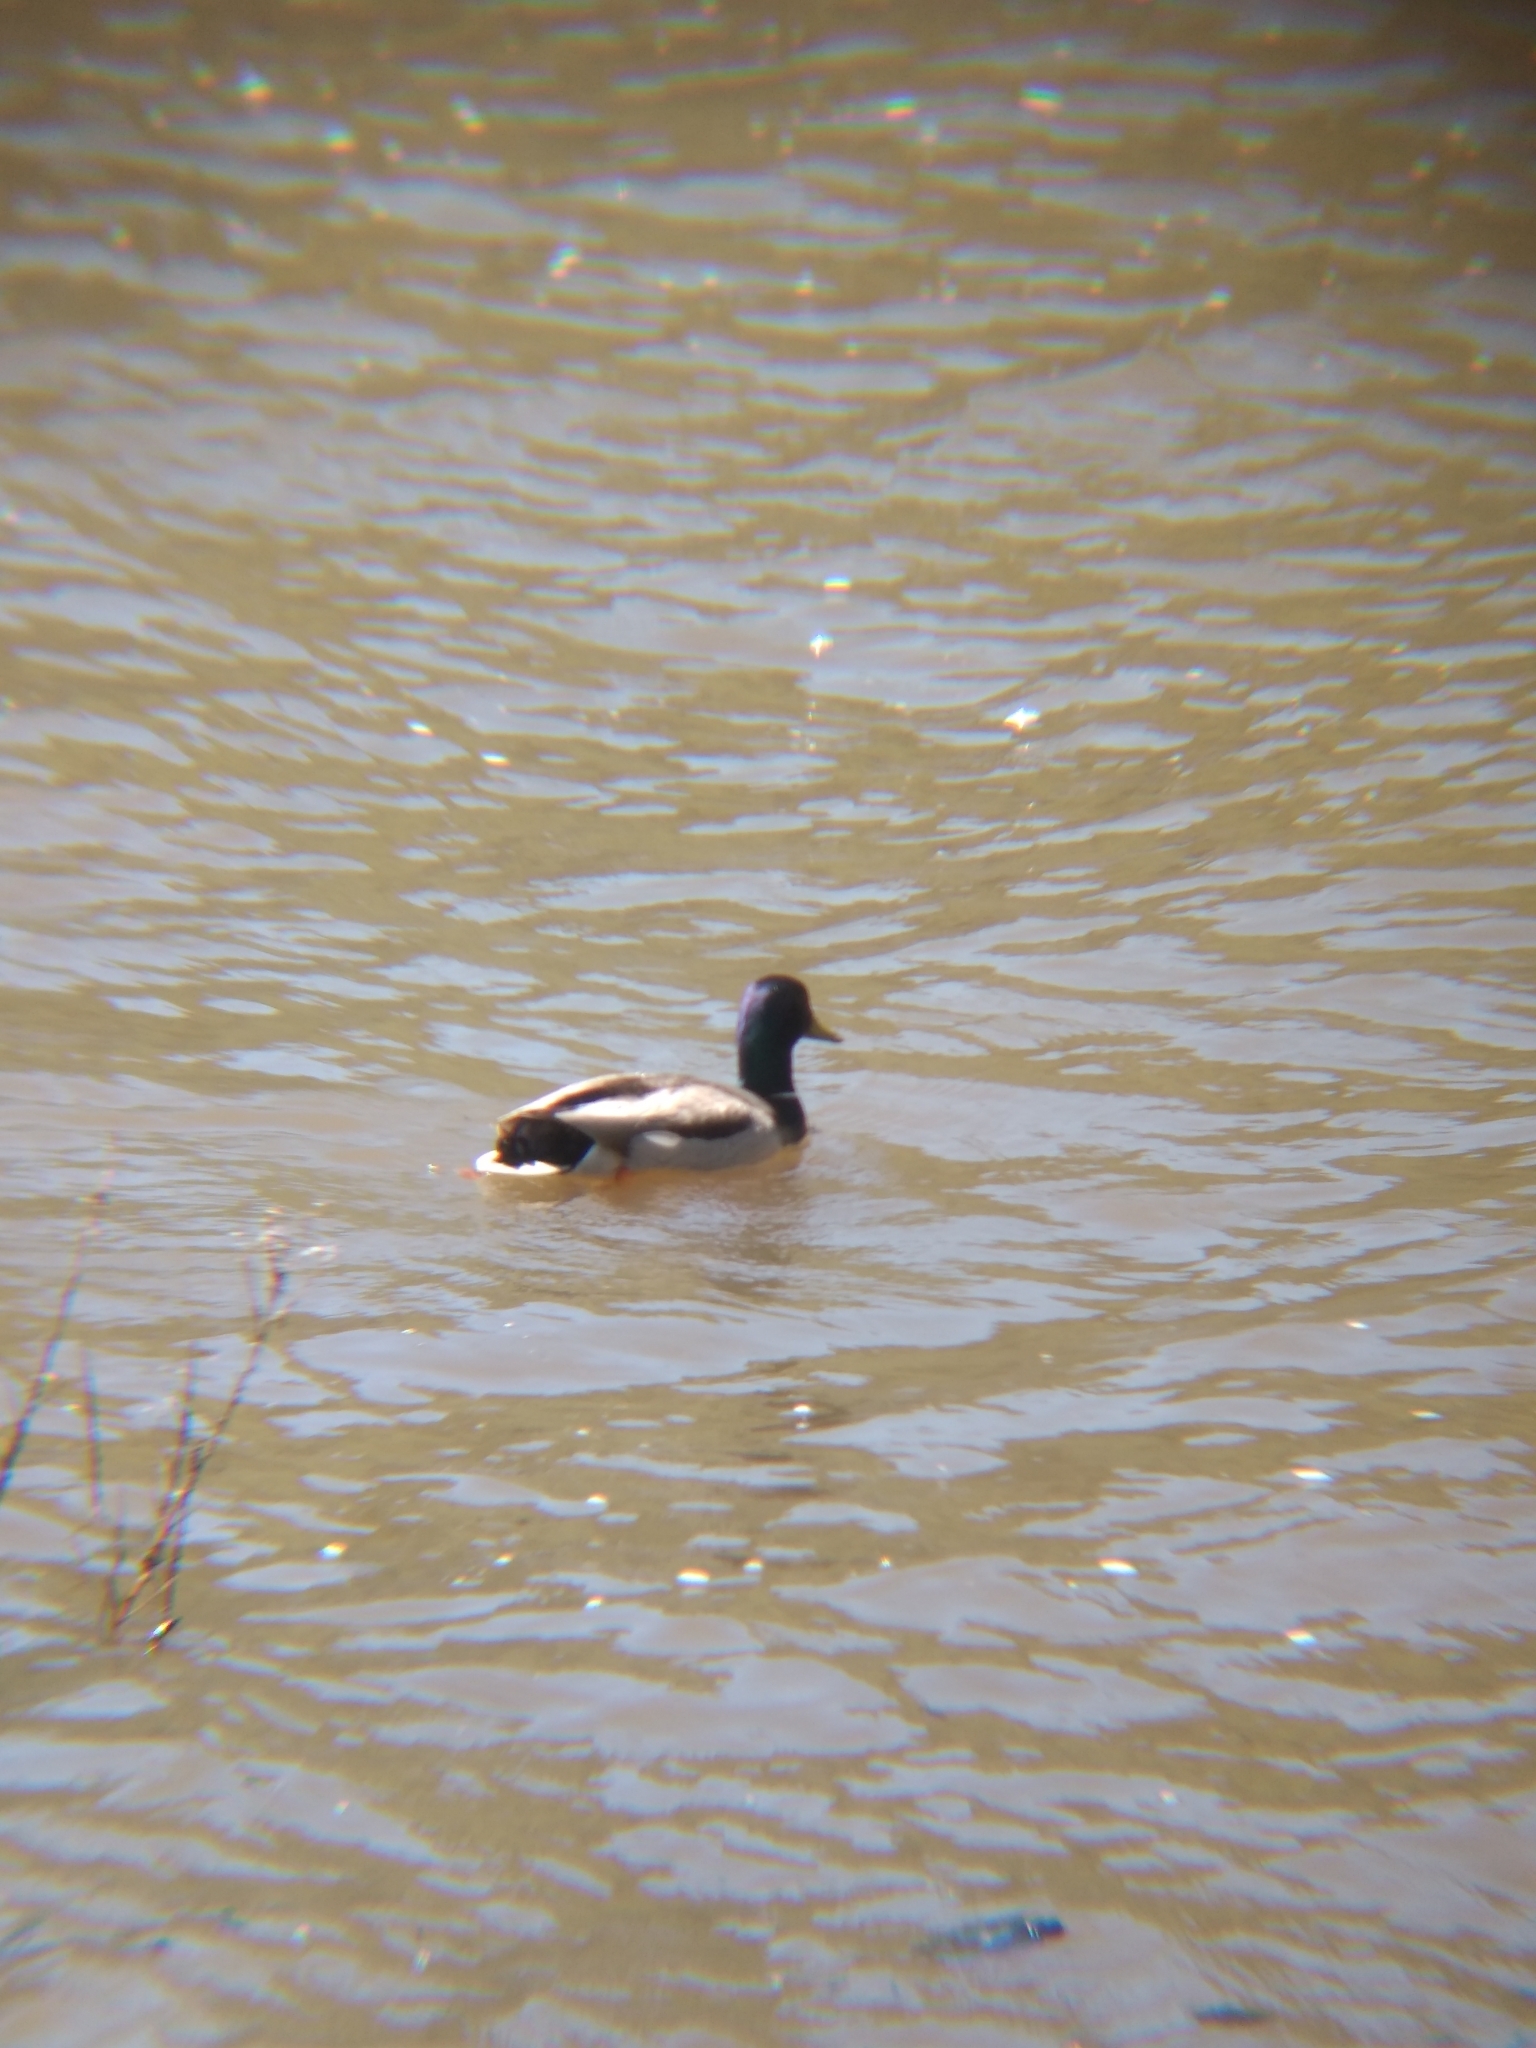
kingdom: Animalia
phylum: Chordata
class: Aves
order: Anseriformes
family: Anatidae
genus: Anas
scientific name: Anas platyrhynchos
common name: Mallard
